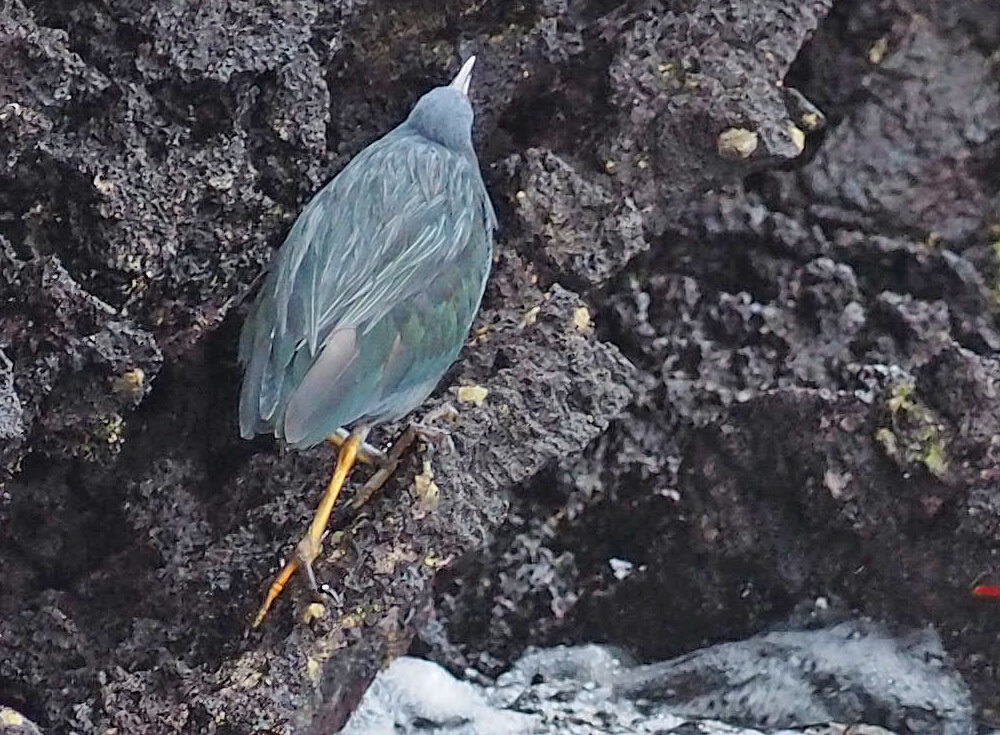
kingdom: Animalia
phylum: Chordata
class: Aves
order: Pelecaniformes
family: Ardeidae
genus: Butorides
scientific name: Butorides striata
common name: Striated heron
